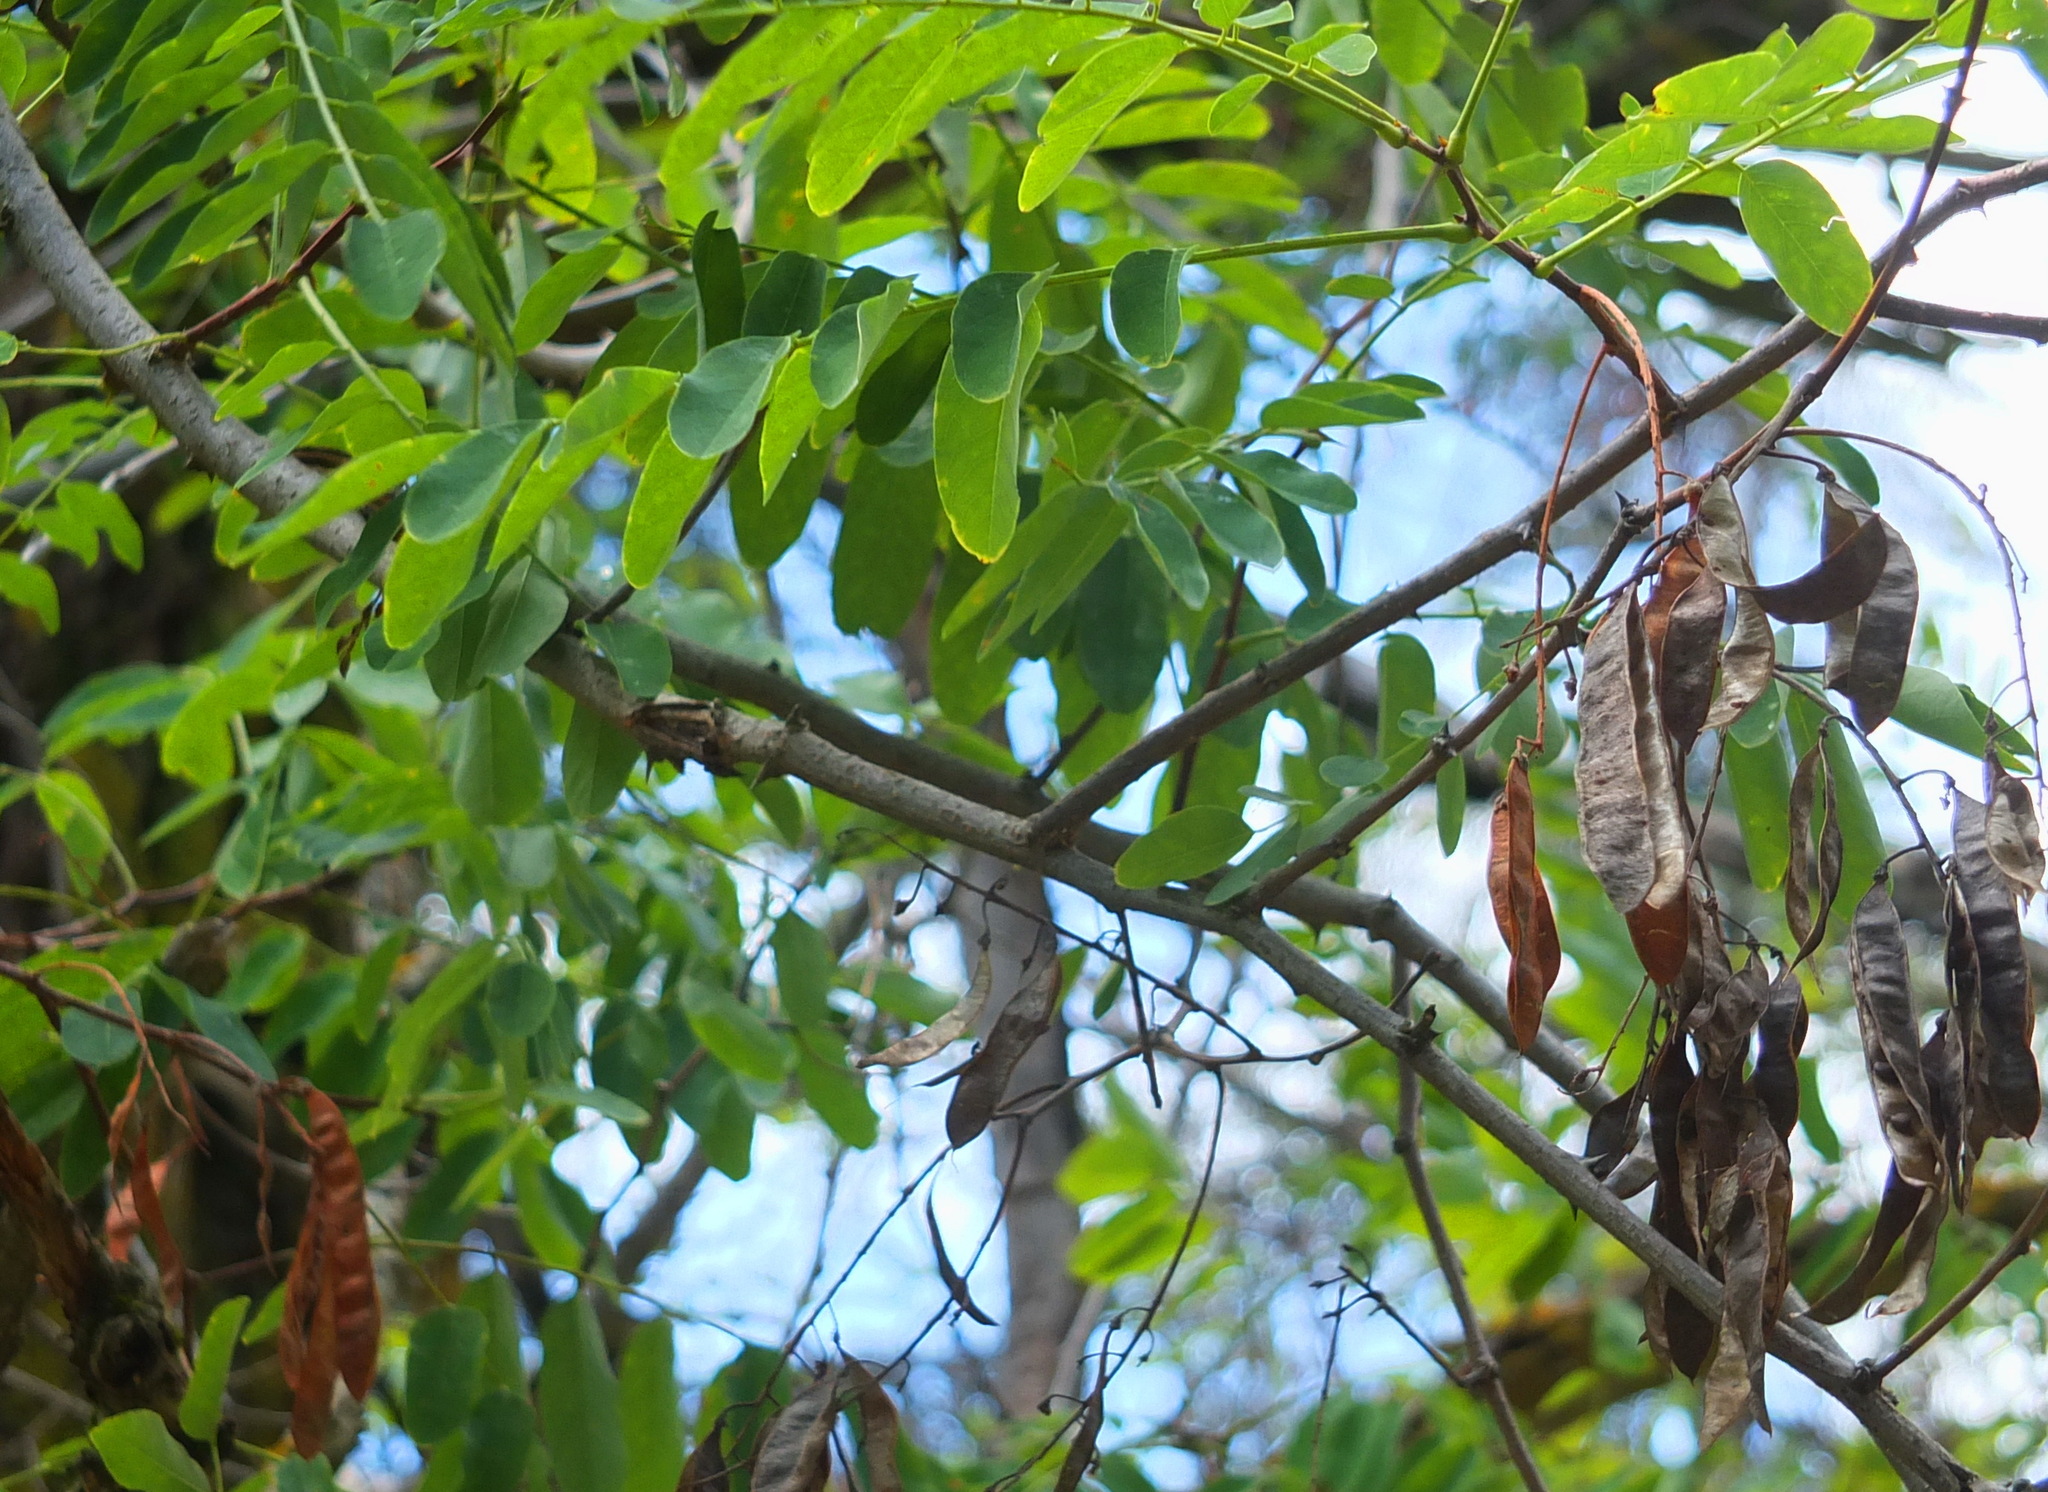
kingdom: Plantae
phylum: Tracheophyta
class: Magnoliopsida
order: Fabales
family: Fabaceae
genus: Robinia
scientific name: Robinia pseudoacacia
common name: Black locust
